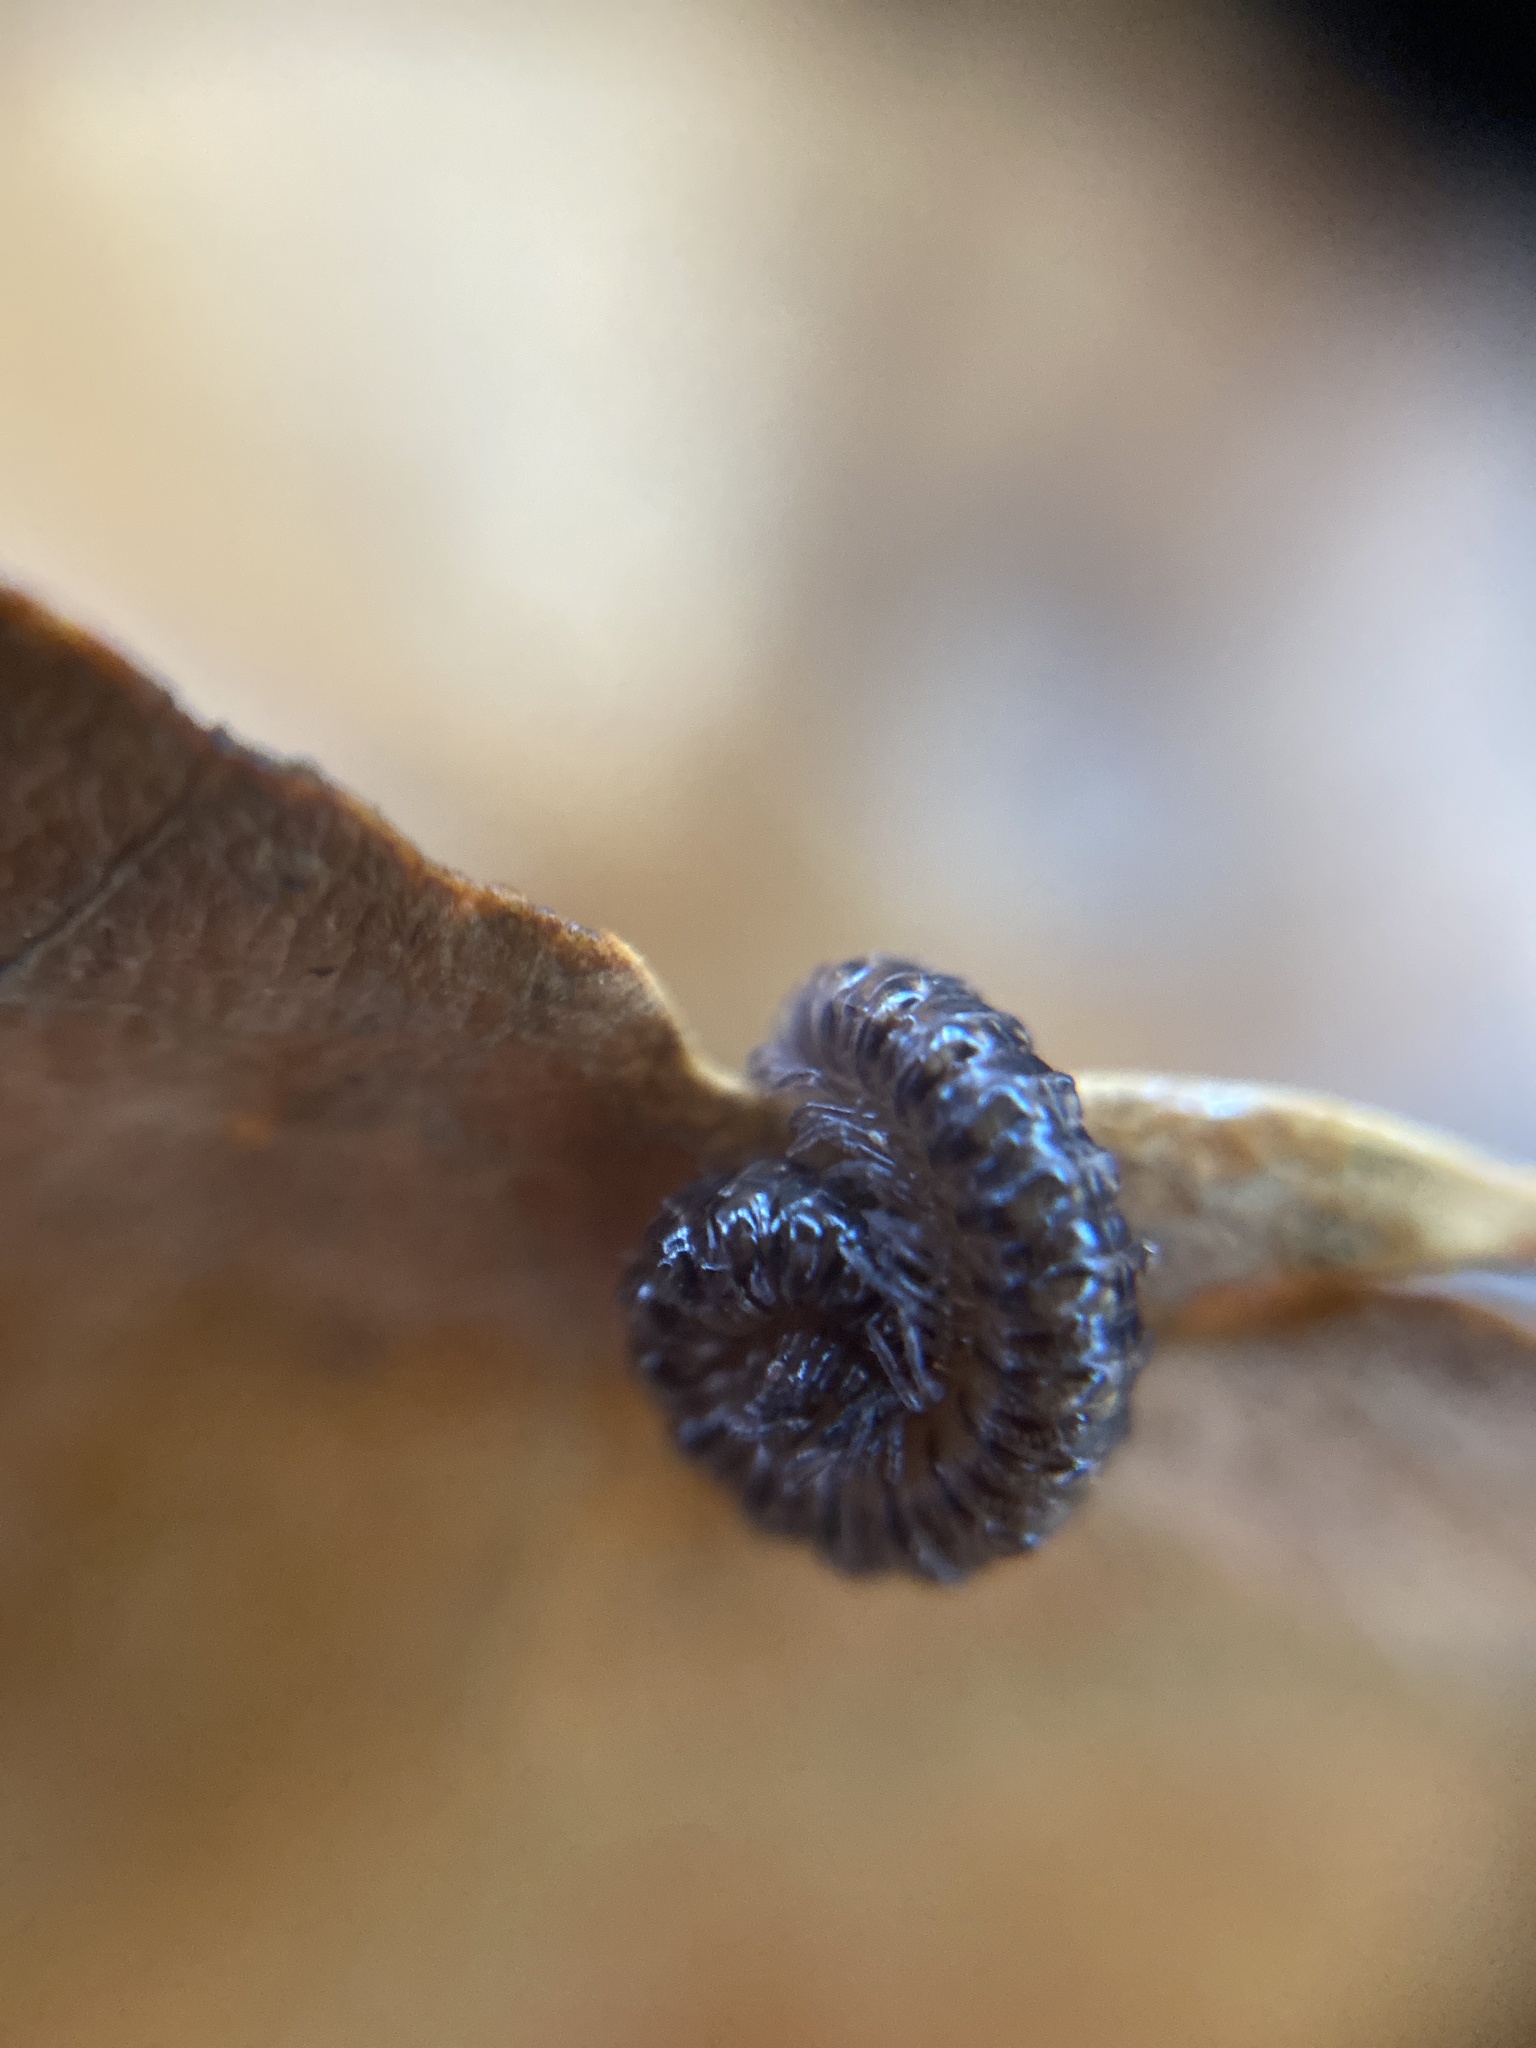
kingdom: Animalia
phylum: Arthropoda
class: Diplopoda
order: Chordeumatida
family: Craspedosomatidae
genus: Craspedosoma
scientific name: Craspedosoma rawlinsii
